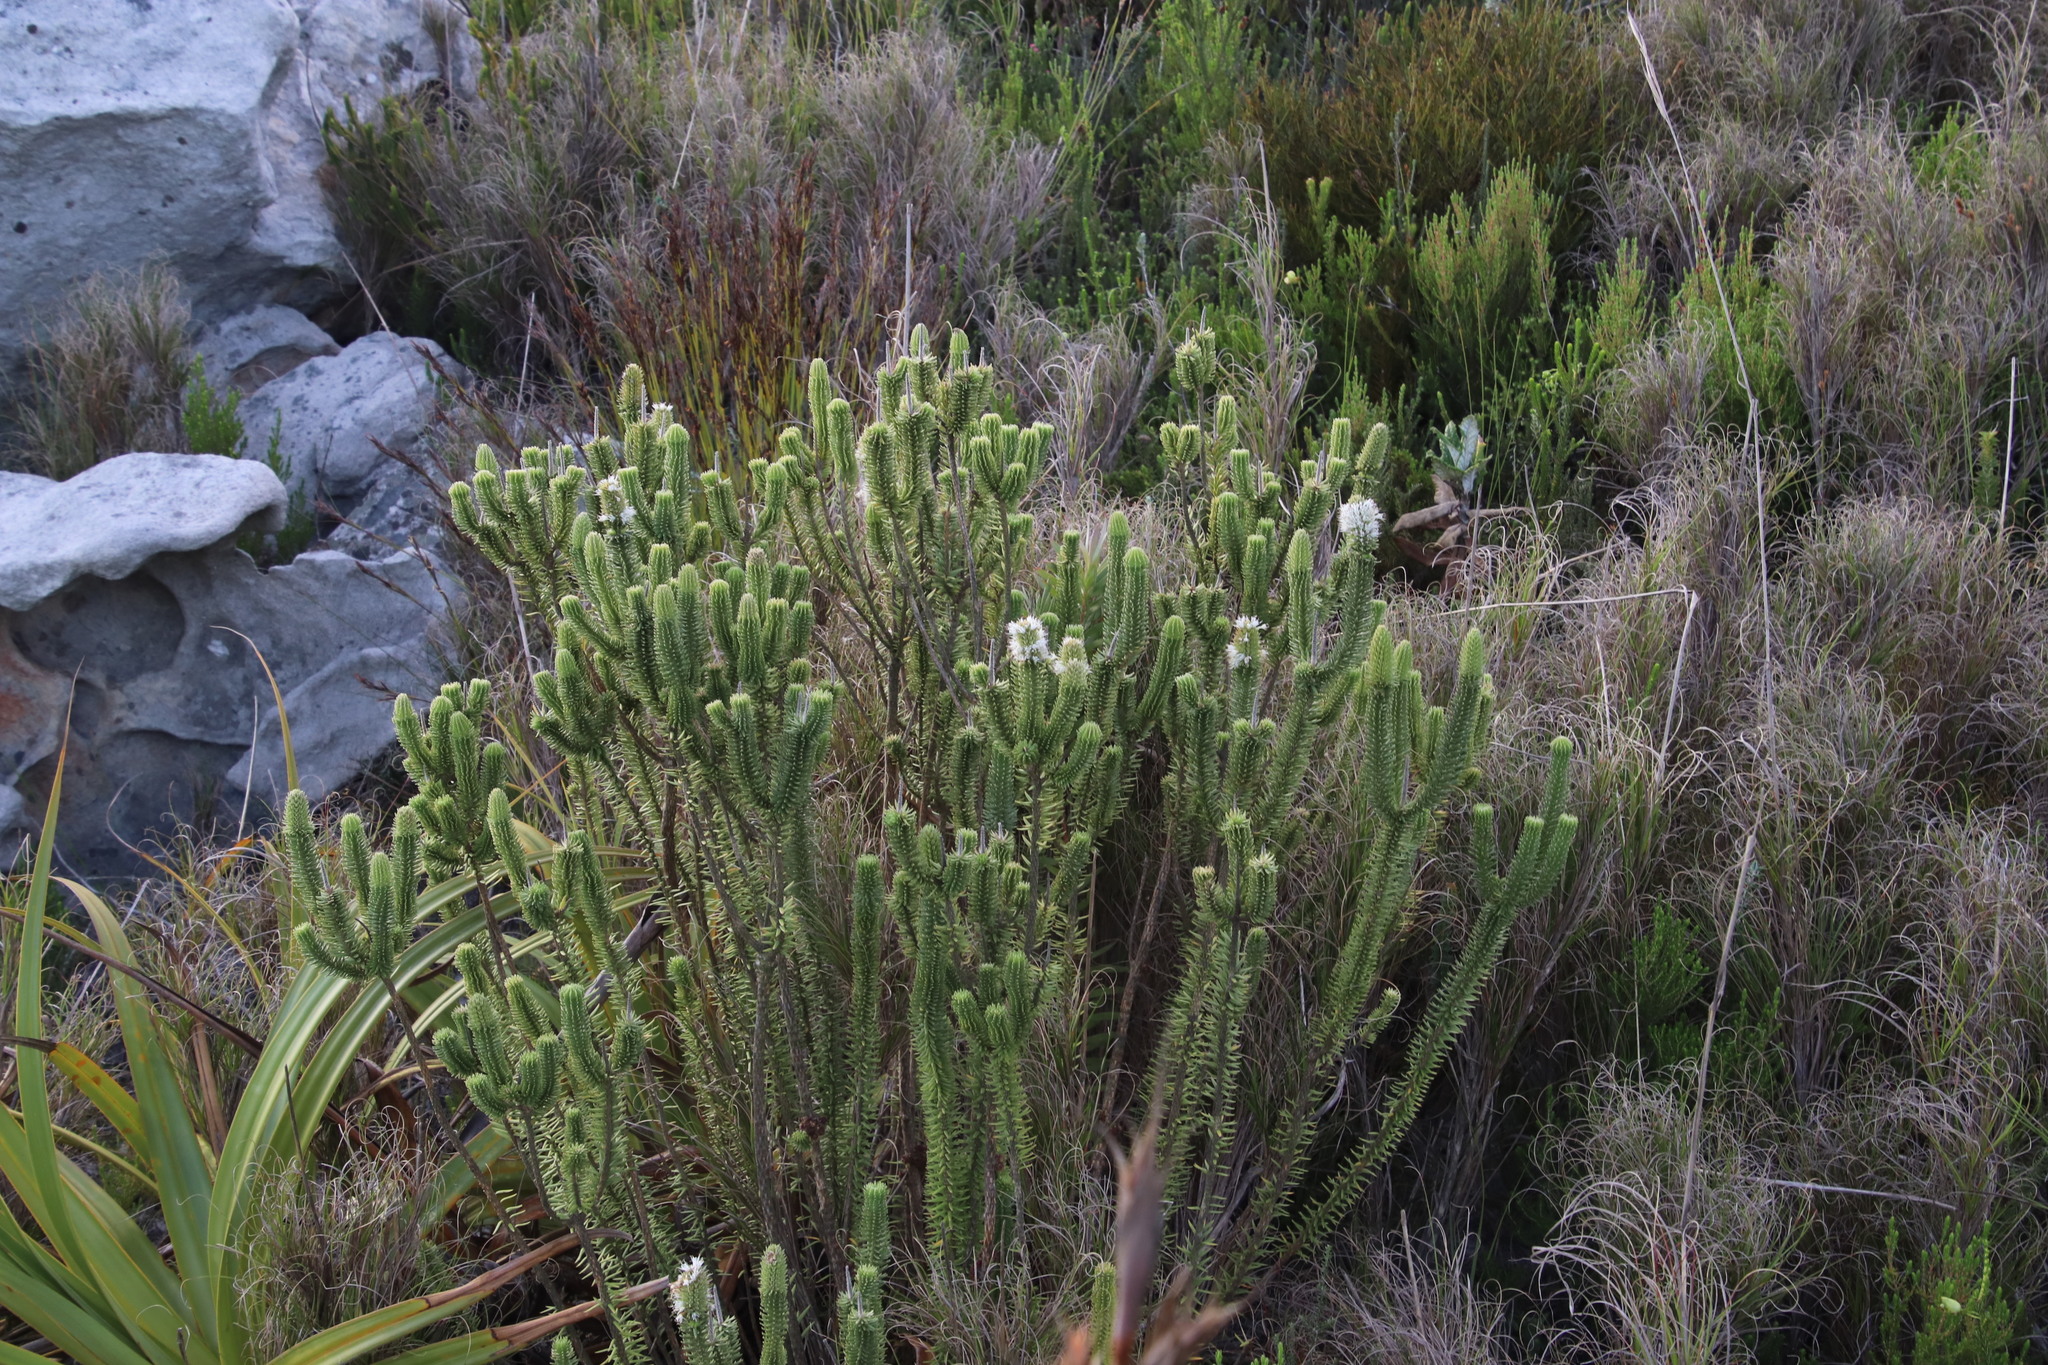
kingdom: Plantae
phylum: Tracheophyta
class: Magnoliopsida
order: Lamiales
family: Stilbaceae
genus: Stilbe
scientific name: Stilbe vestita
